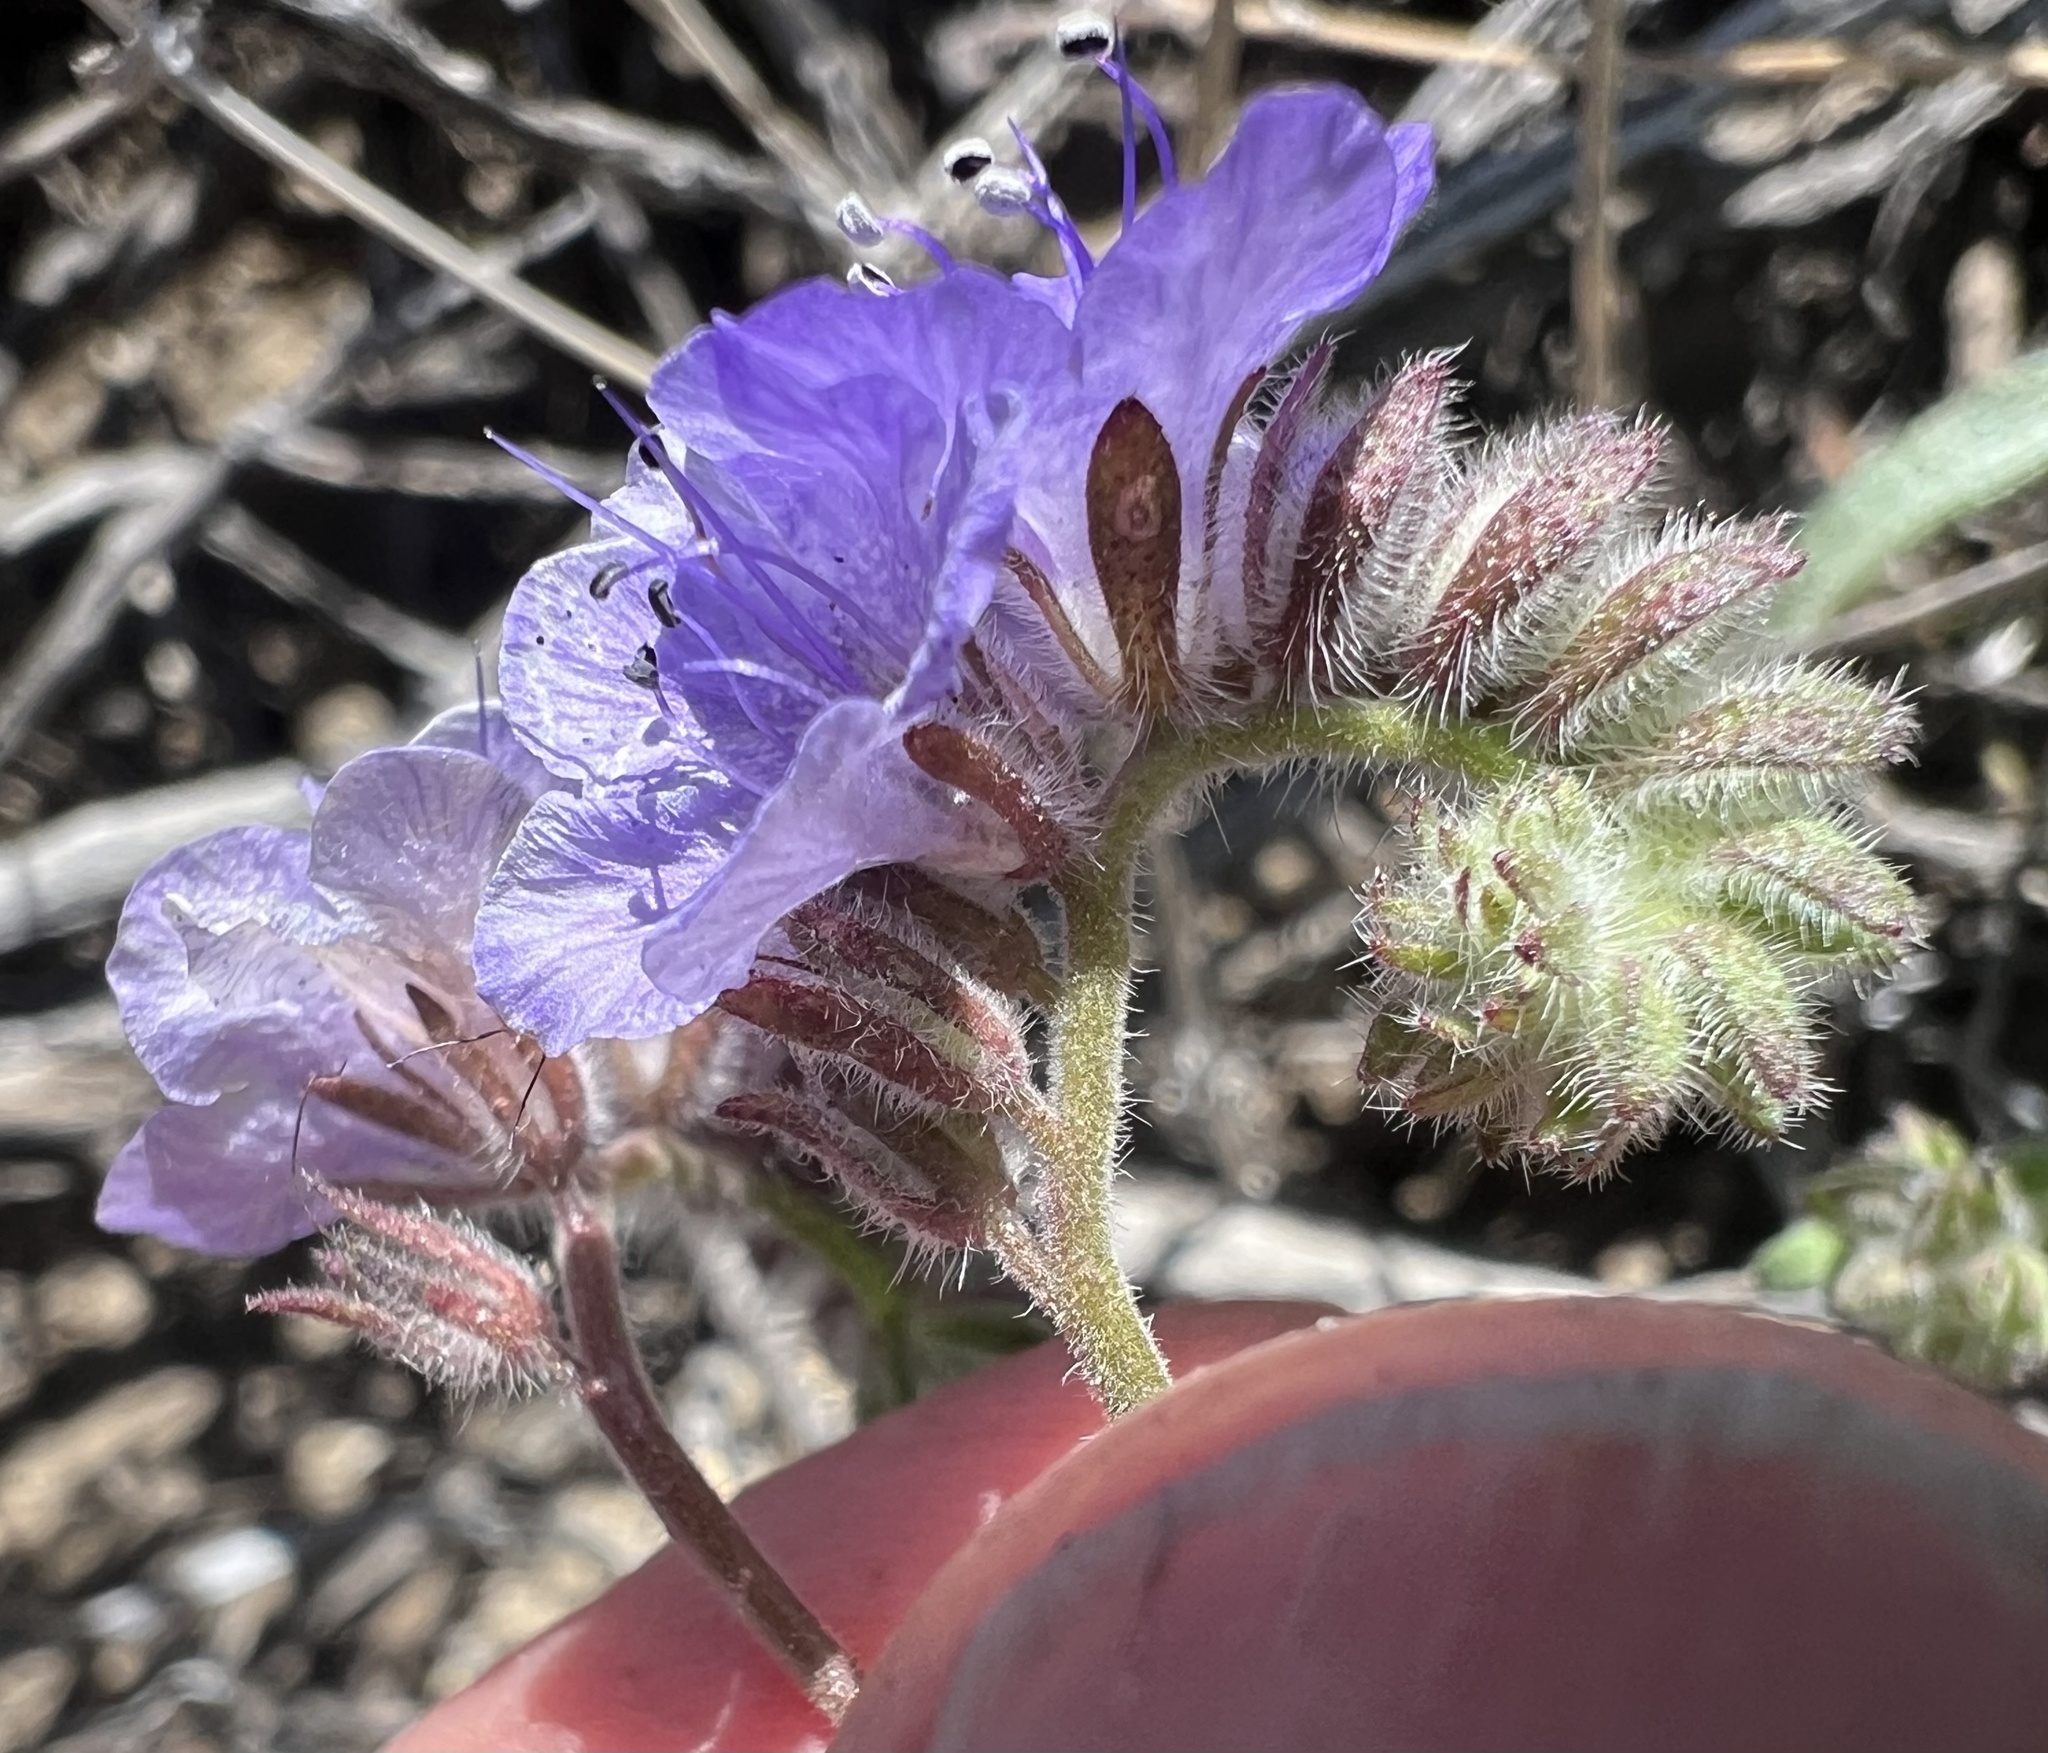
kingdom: Plantae
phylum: Tracheophyta
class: Magnoliopsida
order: Boraginales
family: Hydrophyllaceae
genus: Phacelia
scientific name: Phacelia distans
